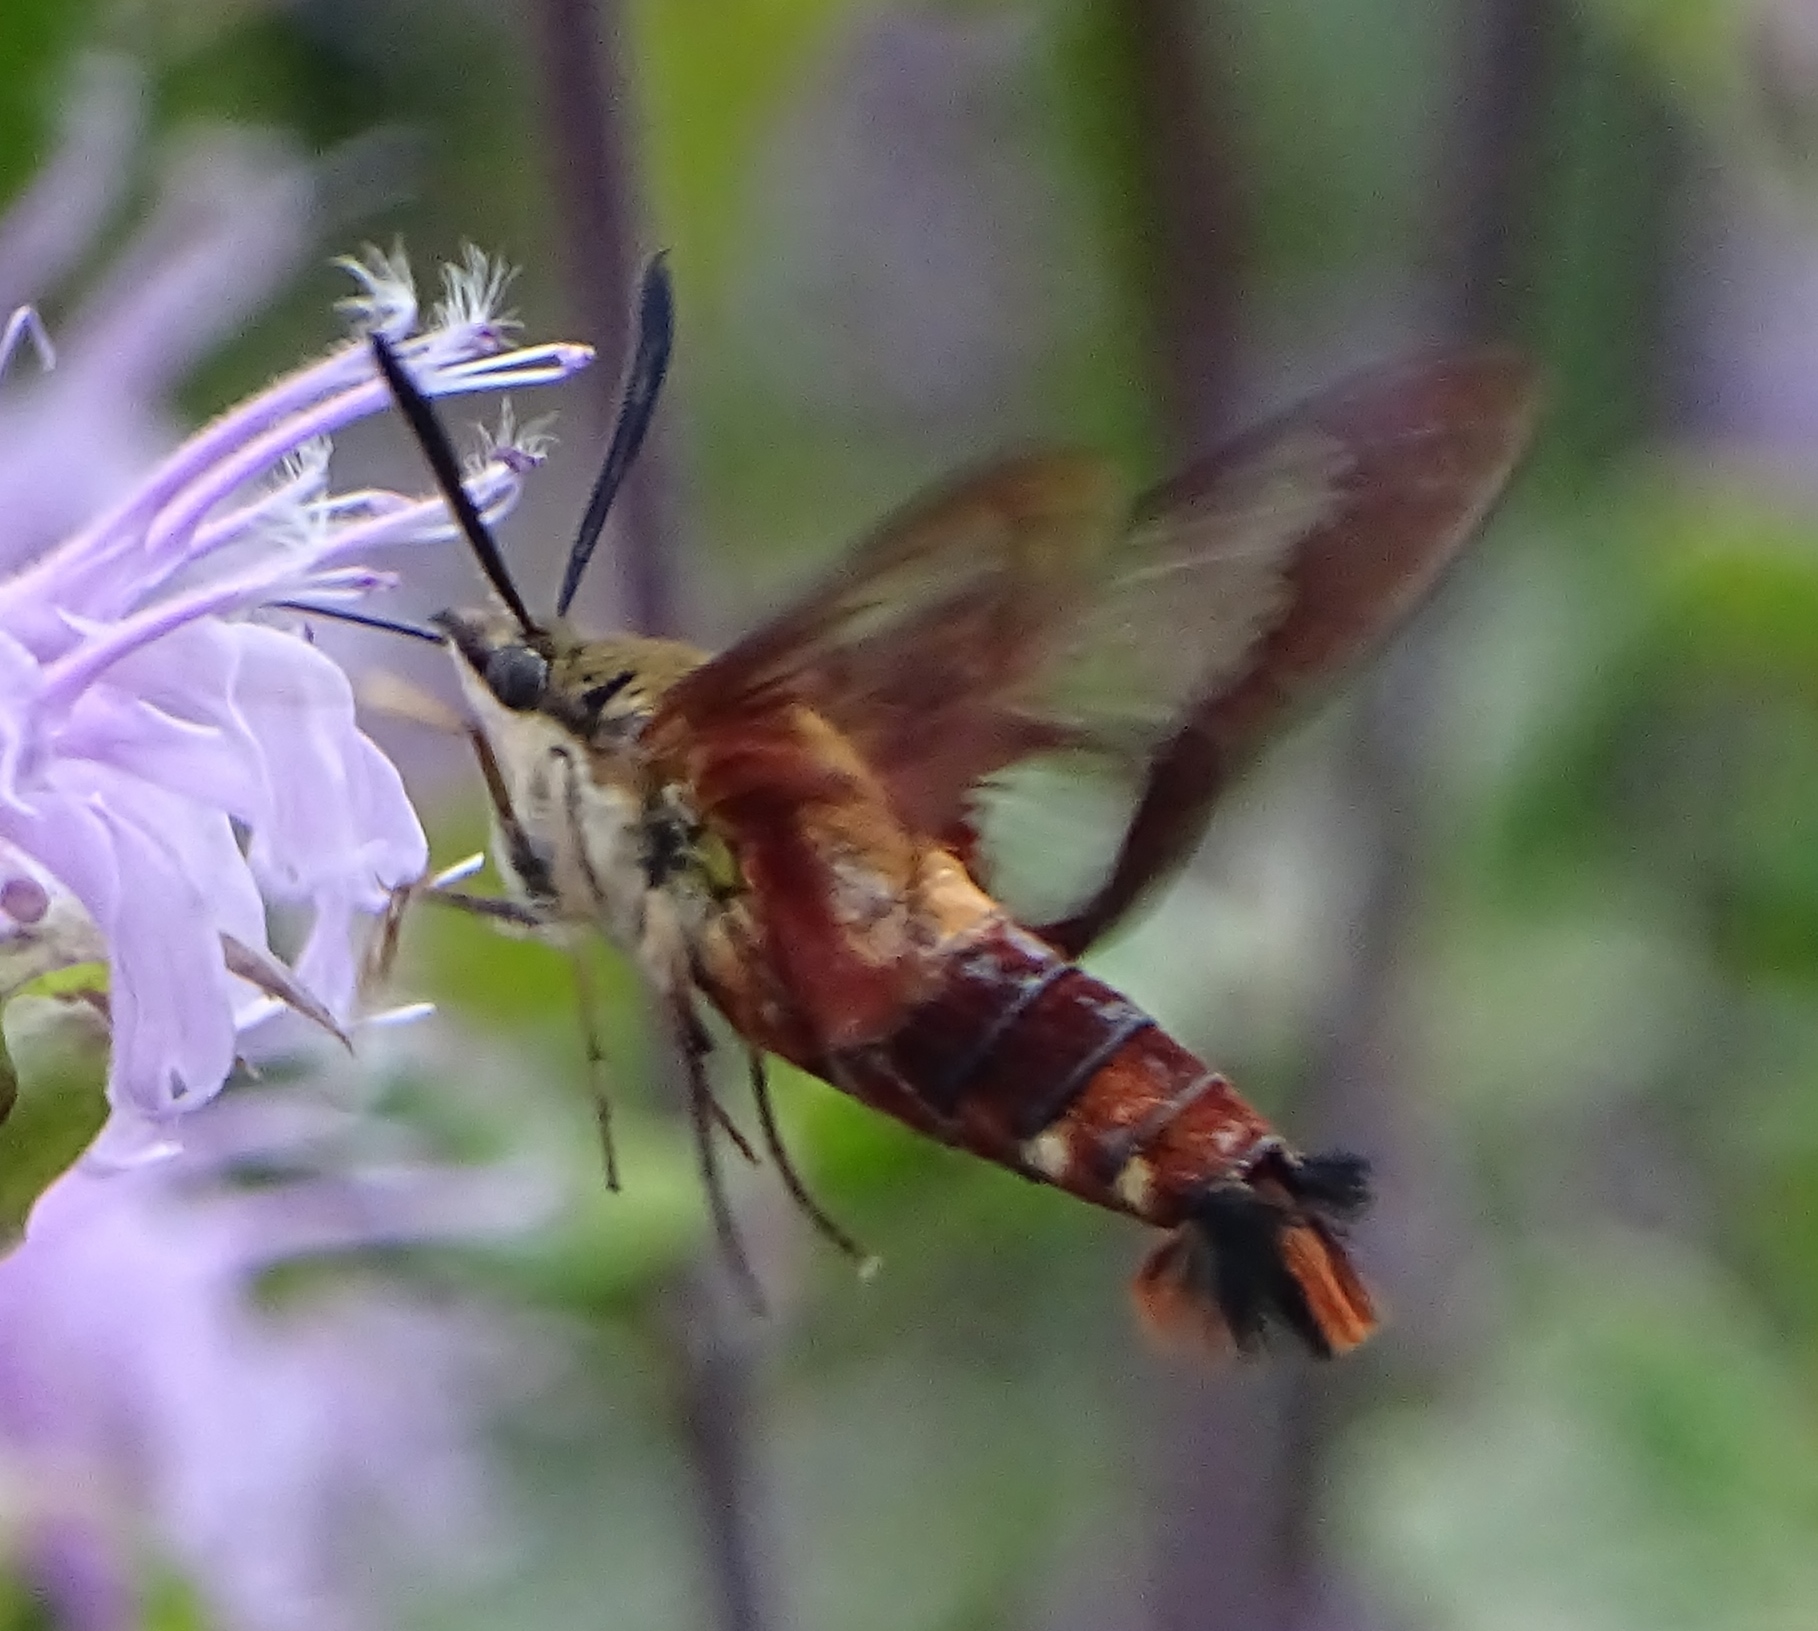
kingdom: Animalia
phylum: Arthropoda
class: Insecta
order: Lepidoptera
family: Sphingidae
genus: Hemaris
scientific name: Hemaris thysbe
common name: Common clear-wing
